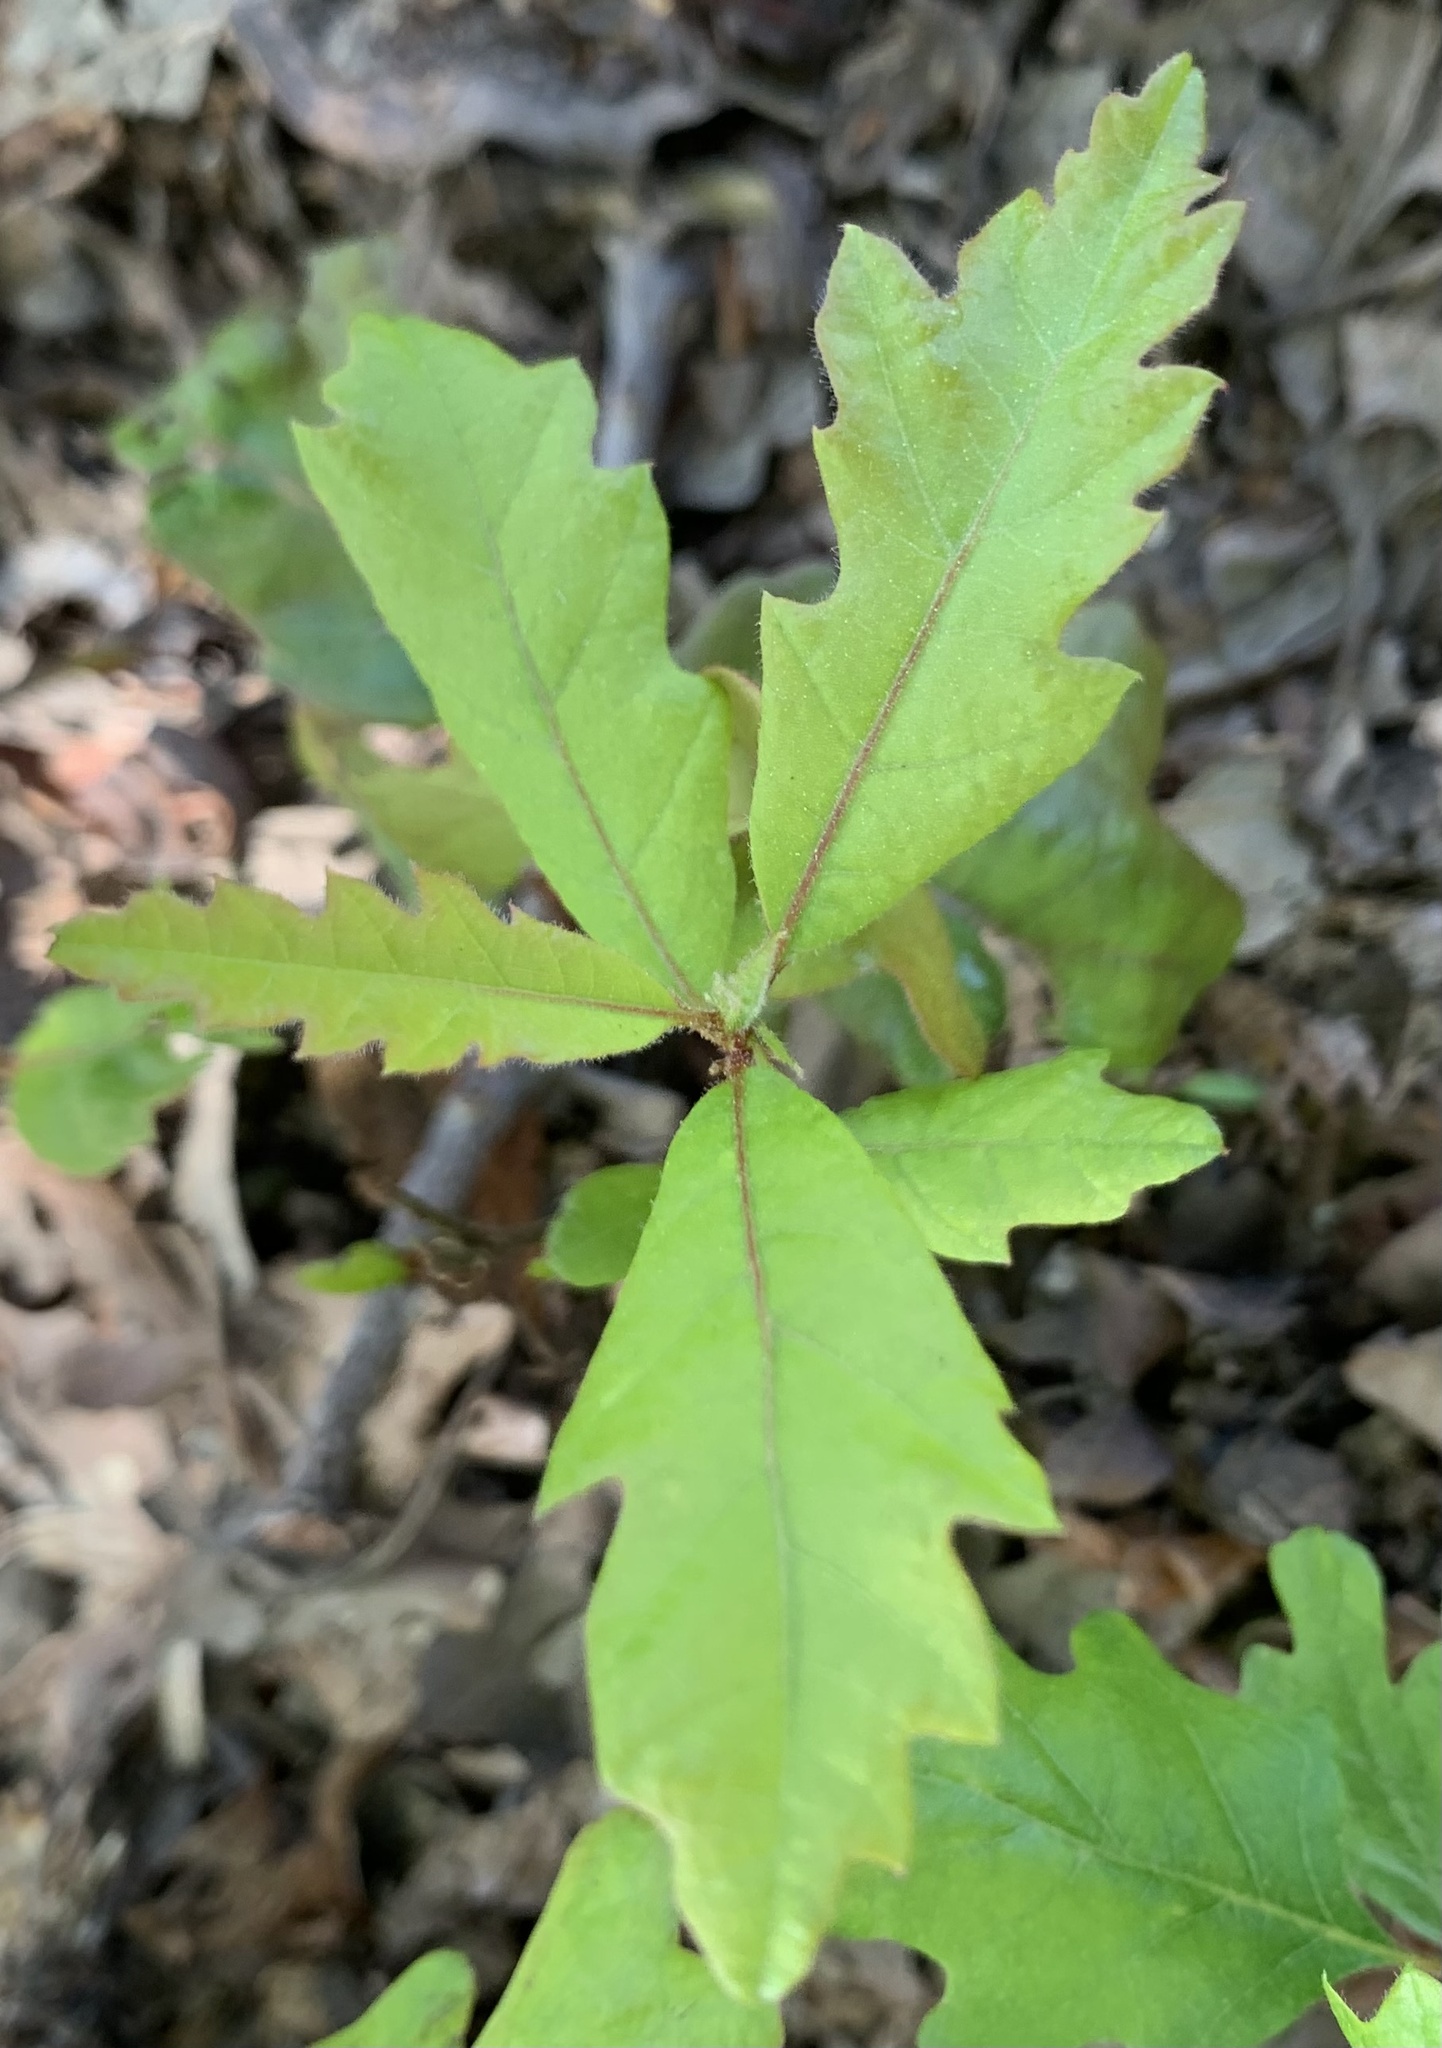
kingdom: Plantae
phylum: Tracheophyta
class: Magnoliopsida
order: Fagales
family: Fagaceae
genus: Quercus
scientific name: Quercus kelloggii
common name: California black oak
